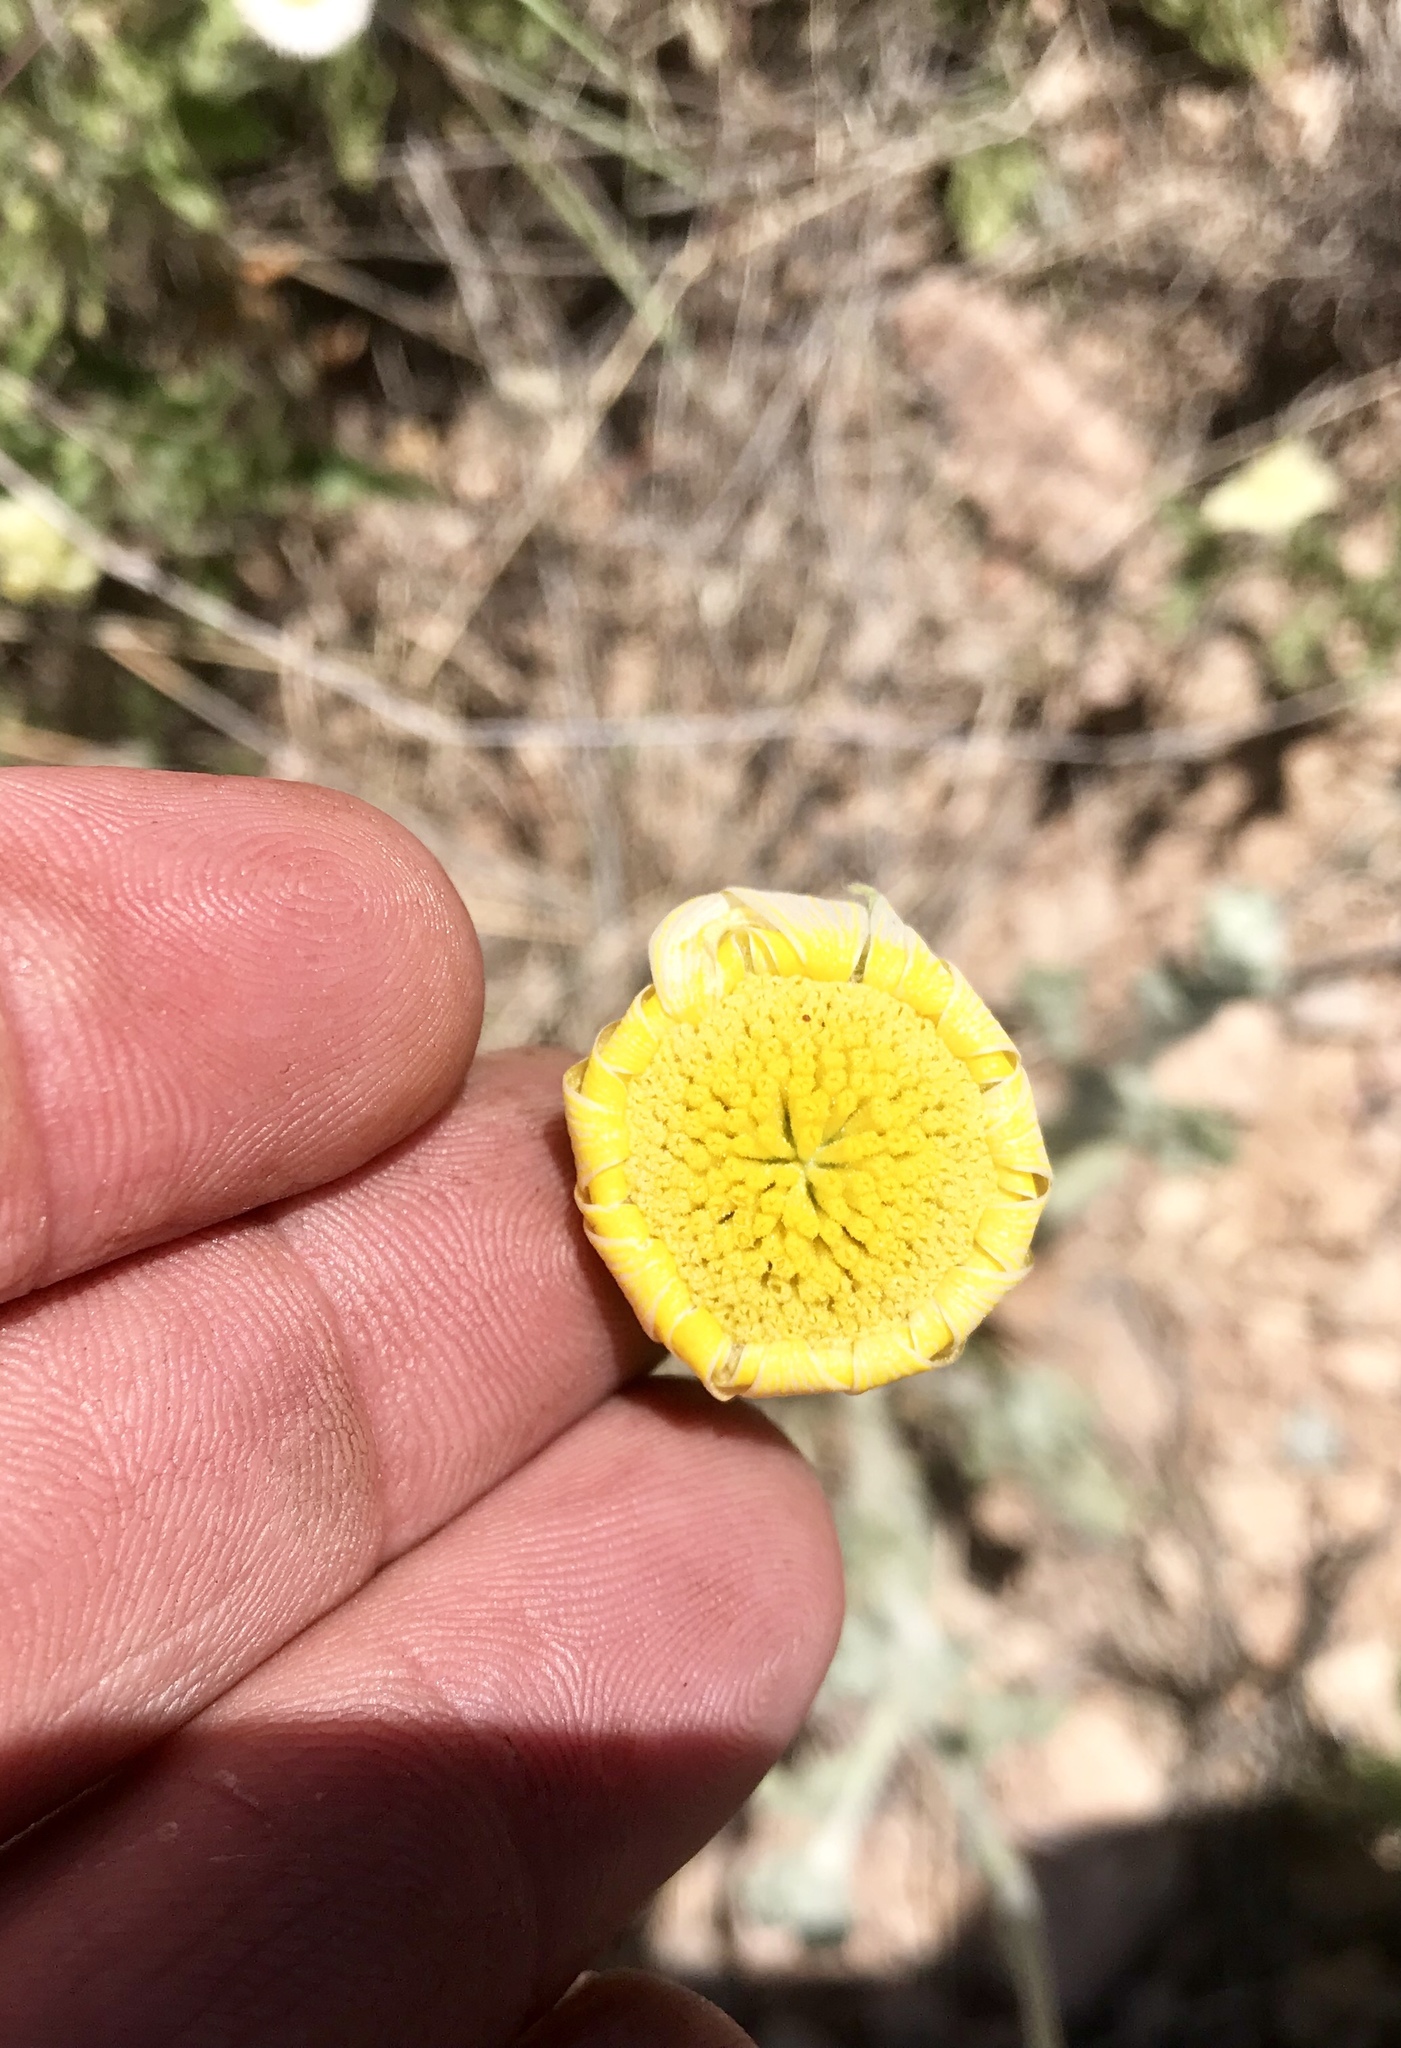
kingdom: Plantae
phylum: Tracheophyta
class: Magnoliopsida
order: Asterales
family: Asteraceae
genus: Baileya
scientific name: Baileya multiradiata
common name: Desert-marigold
